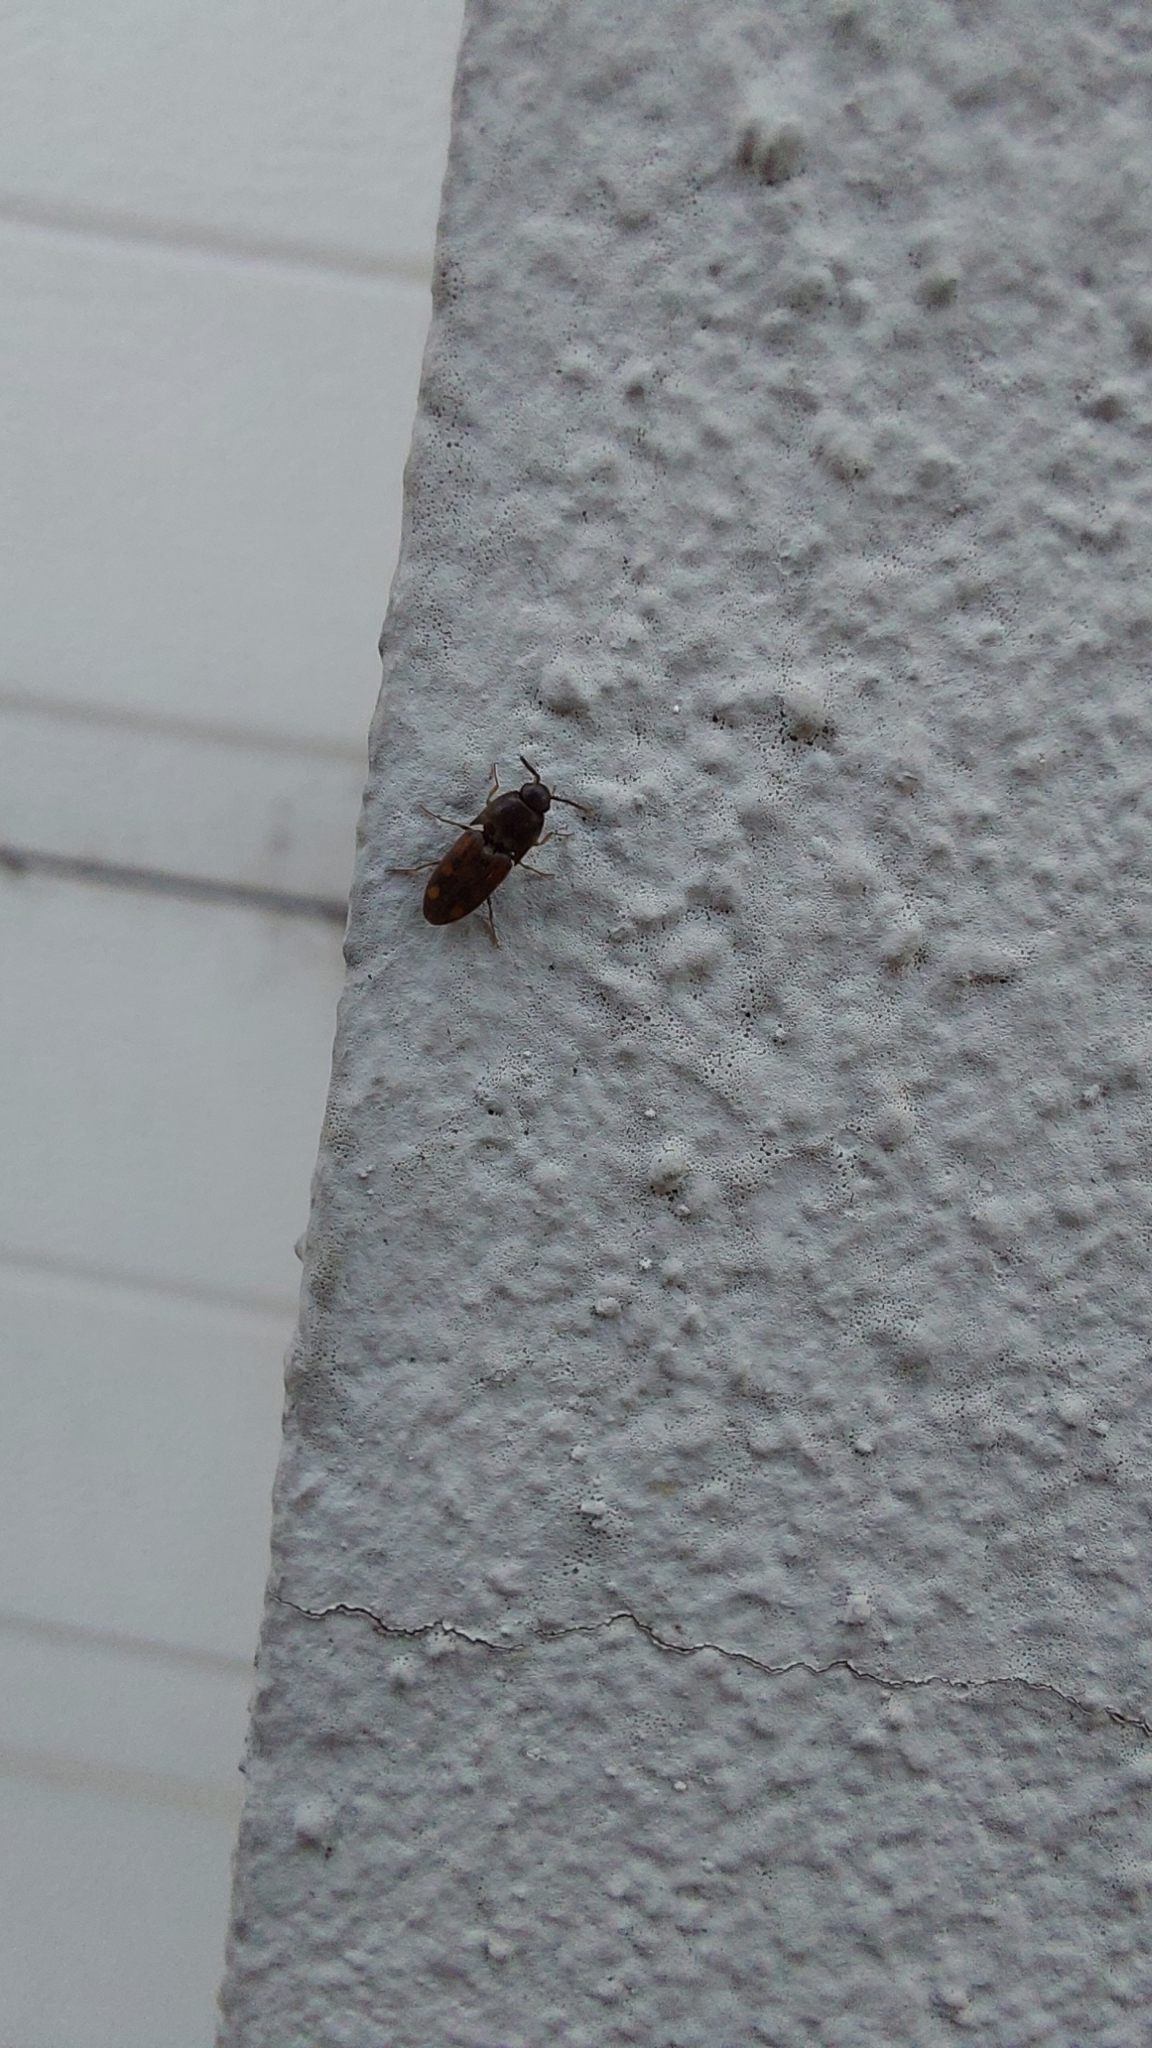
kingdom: Animalia
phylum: Arthropoda
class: Insecta
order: Coleoptera
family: Elateridae
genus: Drasterius
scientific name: Drasterius bimaculatus
